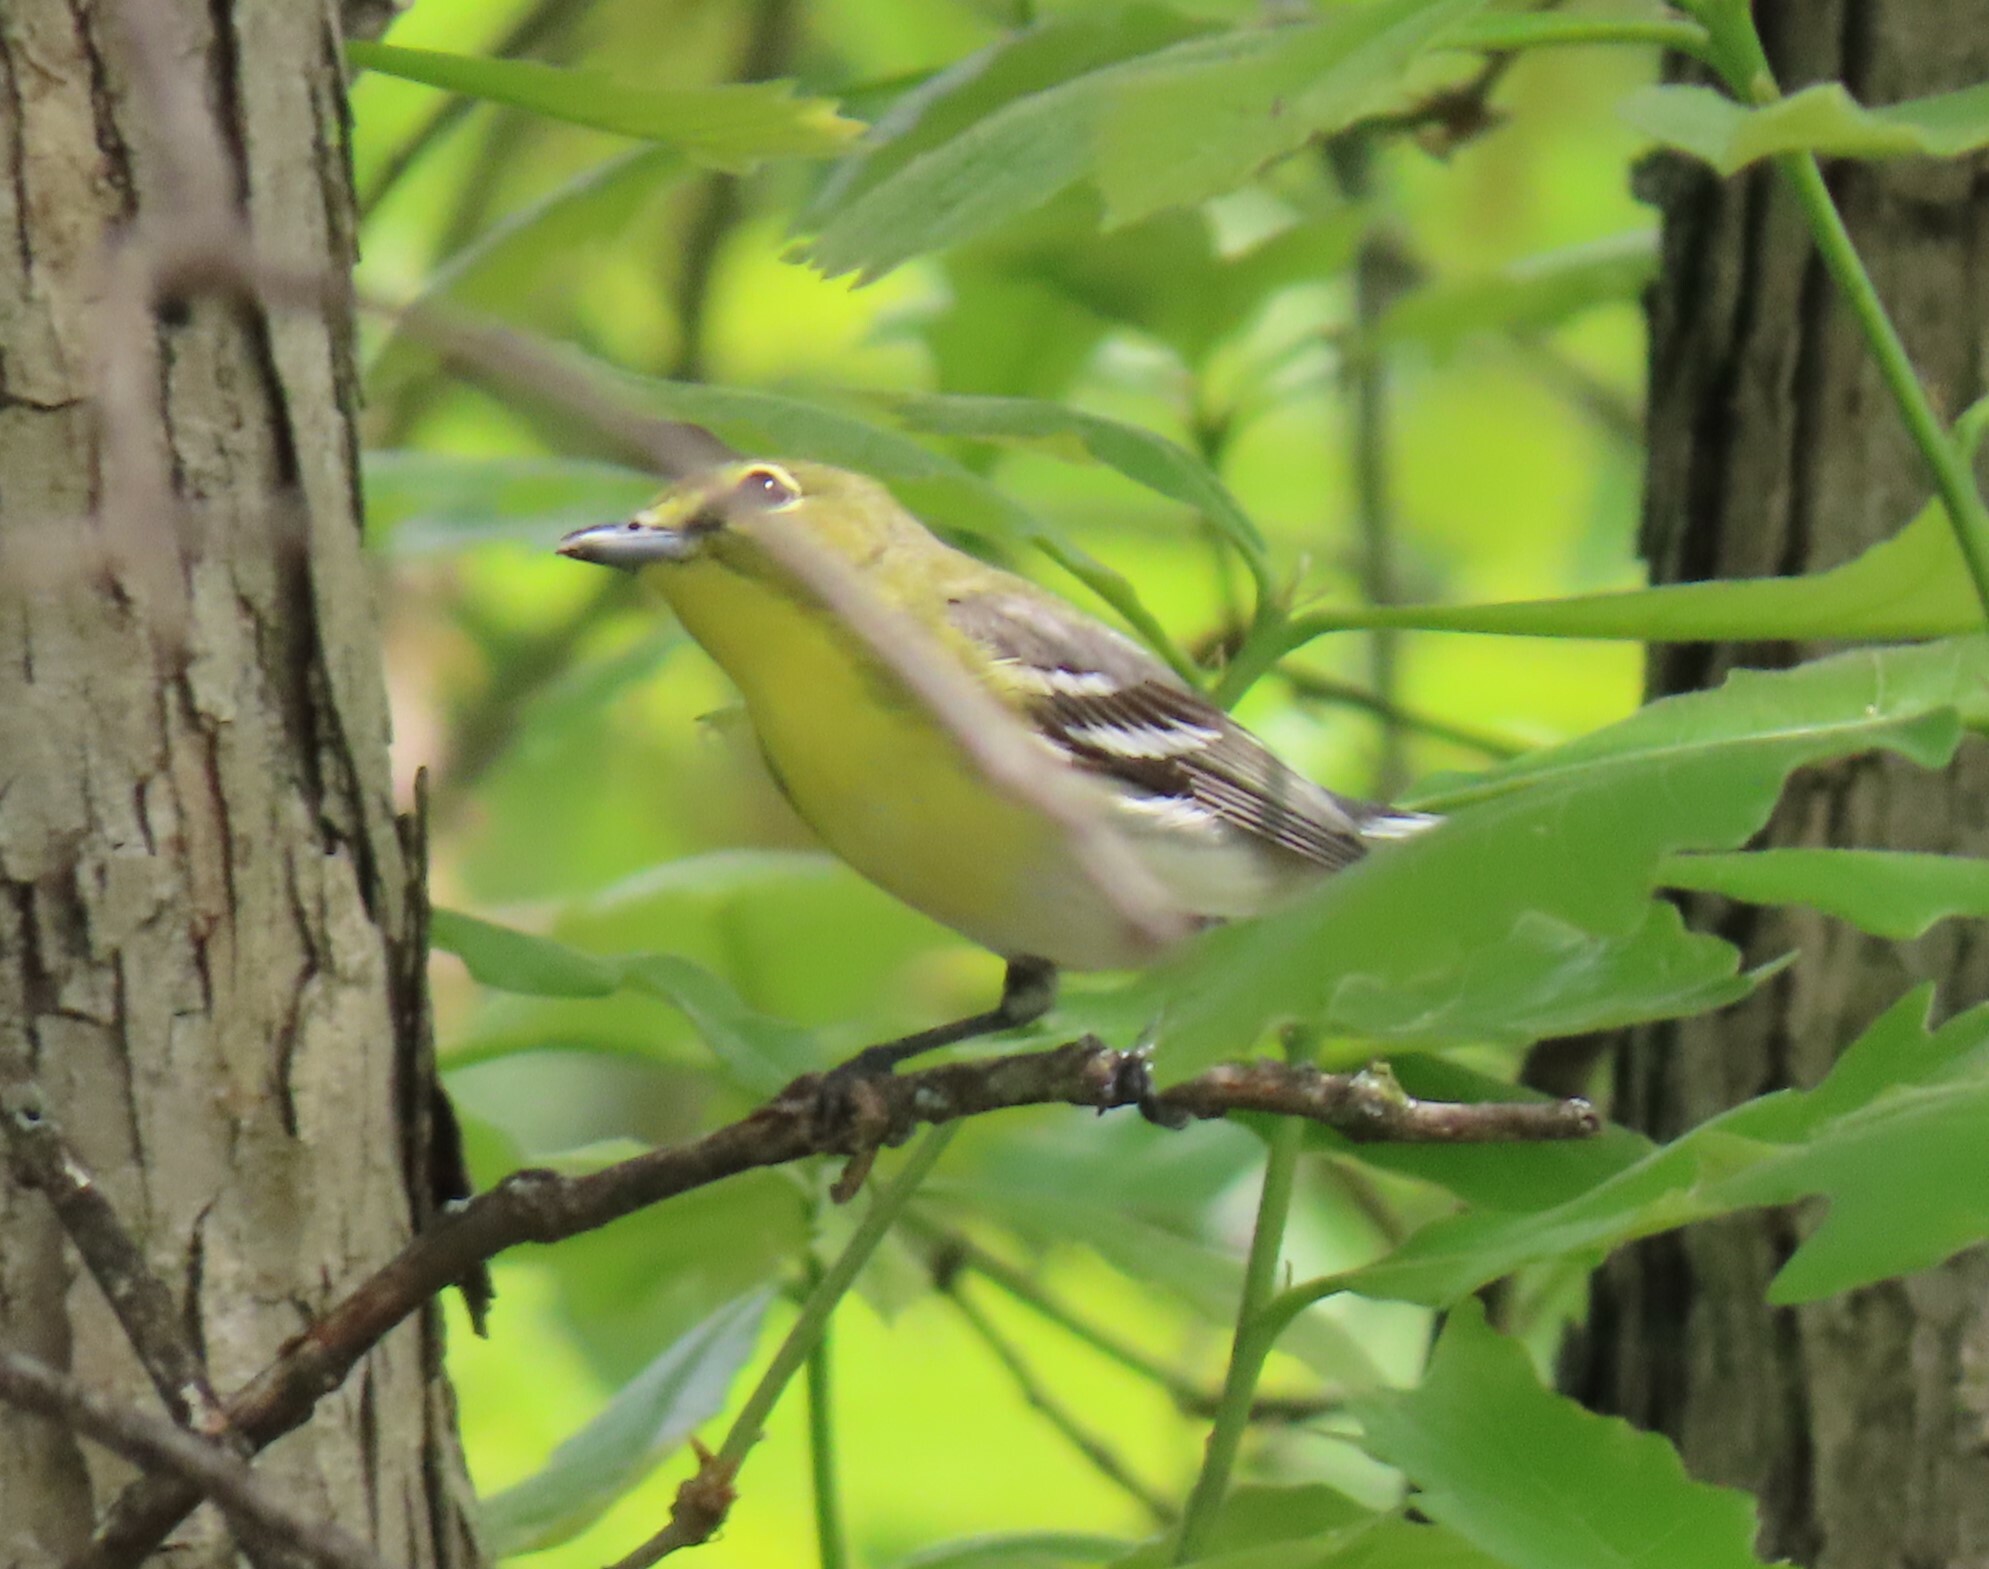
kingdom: Animalia
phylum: Chordata
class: Aves
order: Passeriformes
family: Vireonidae
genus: Vireo
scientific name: Vireo flavifrons
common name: Yellow-throated vireo
